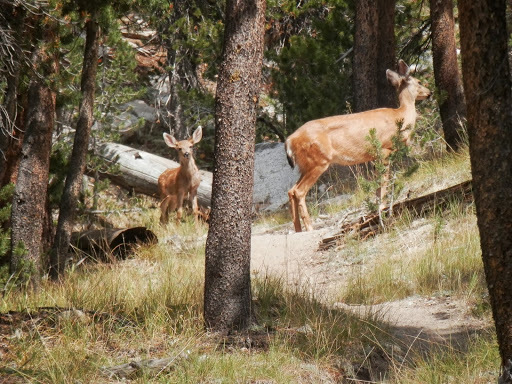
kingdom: Animalia
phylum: Chordata
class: Mammalia
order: Artiodactyla
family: Cervidae
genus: Odocoileus
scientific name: Odocoileus hemionus
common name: Mule deer
